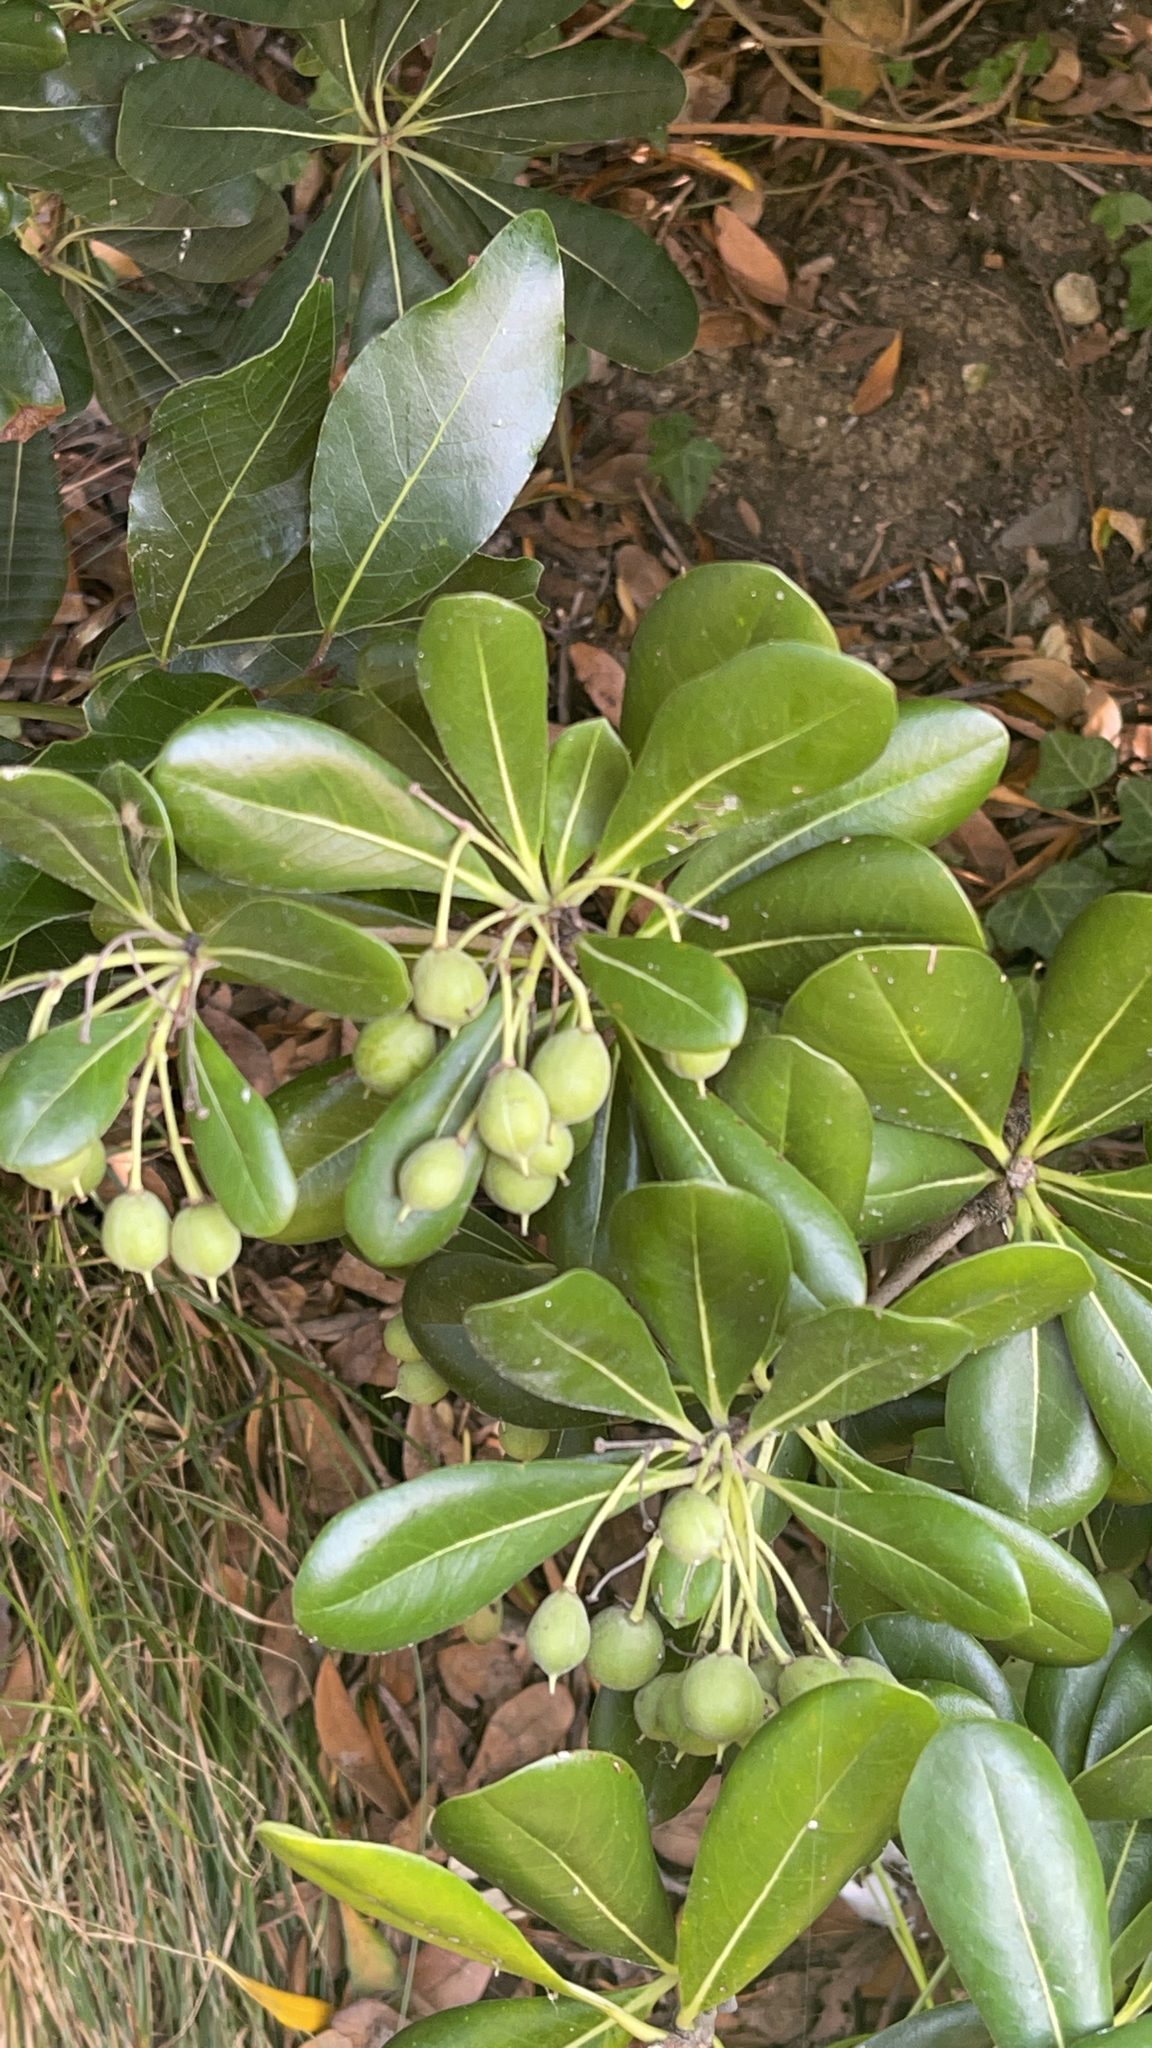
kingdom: Plantae
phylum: Tracheophyta
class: Magnoliopsida
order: Apiales
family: Pittosporaceae
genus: Pittosporum
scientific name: Pittosporum tobira
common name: Japanese cheesewood
